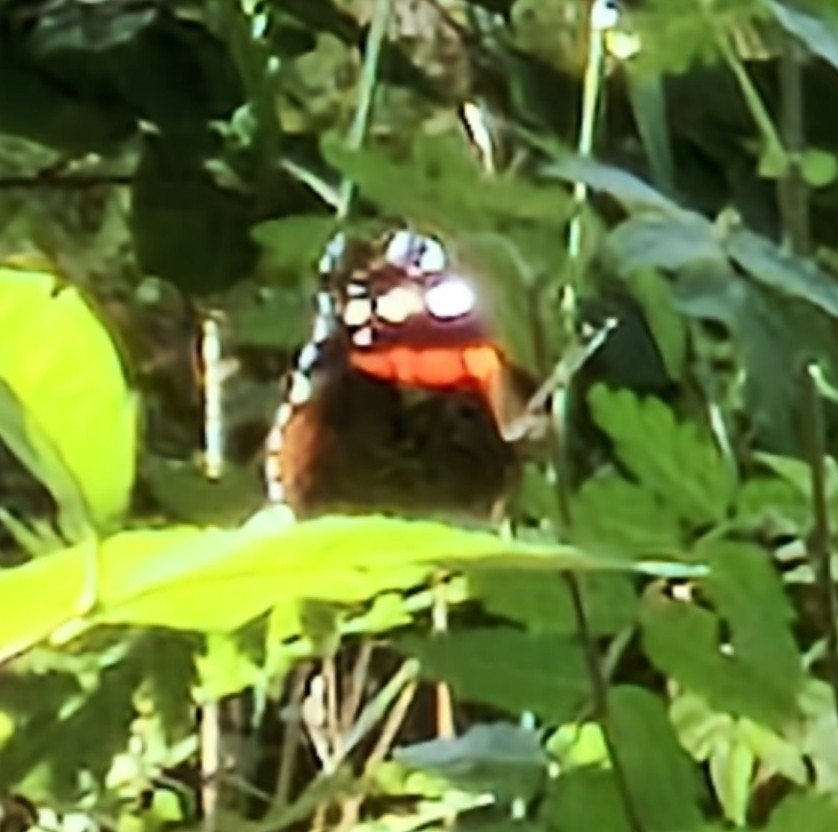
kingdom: Animalia
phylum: Arthropoda
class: Insecta
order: Lepidoptera
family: Nymphalidae
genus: Vanessa
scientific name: Vanessa atalanta
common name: Red admiral
